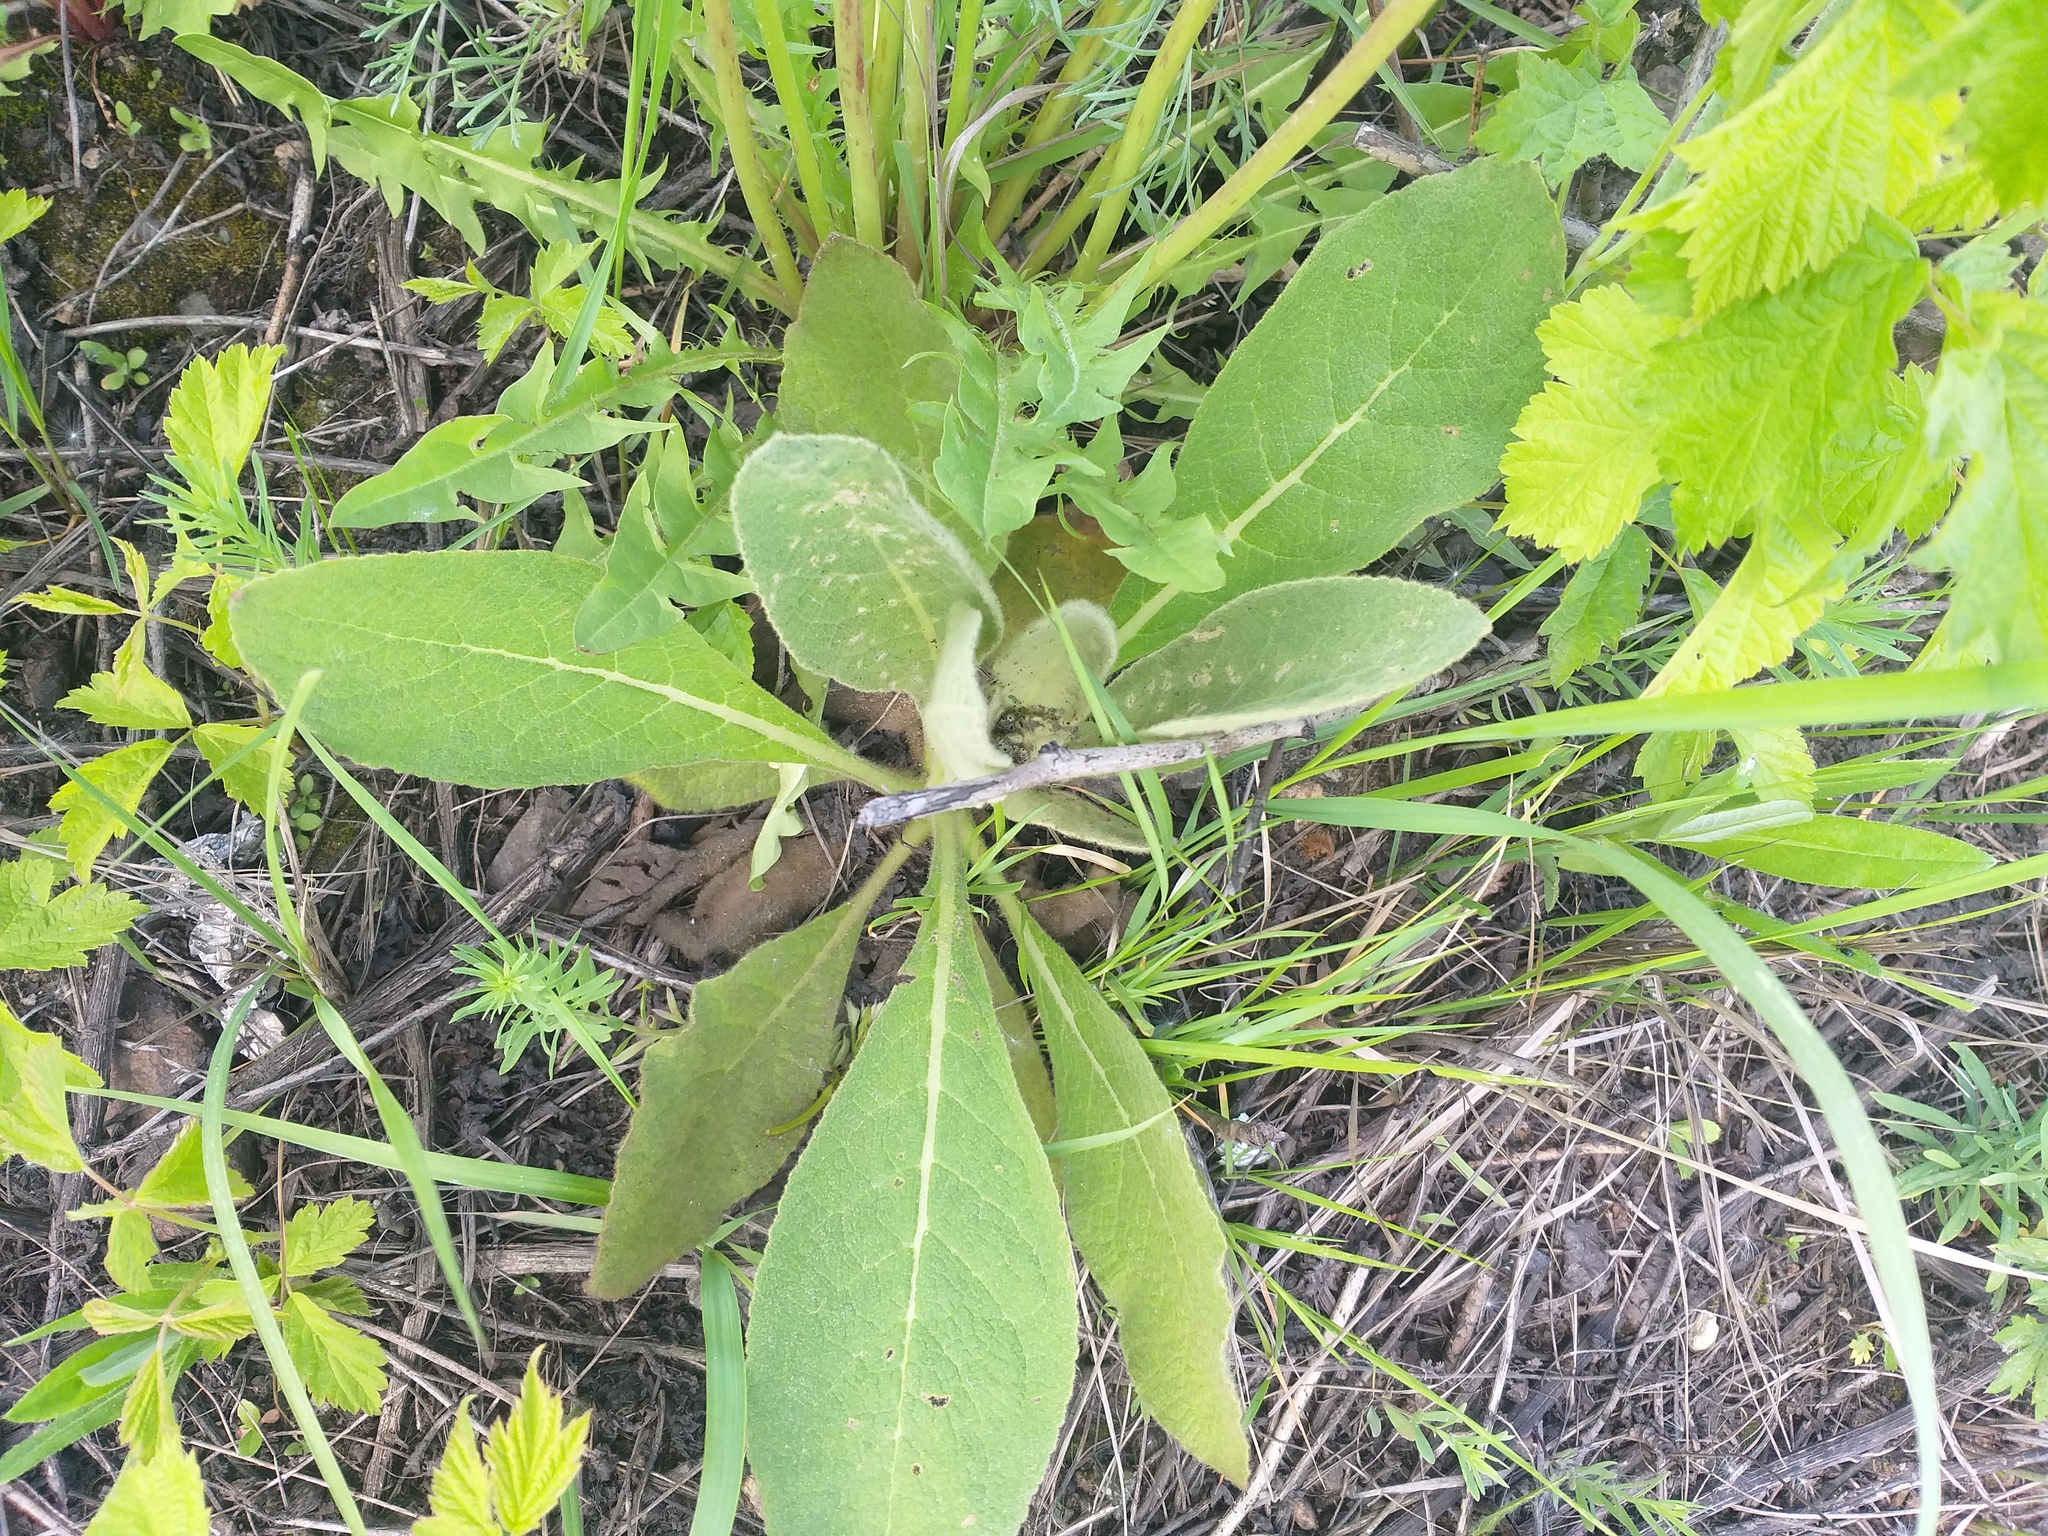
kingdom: Plantae
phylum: Tracheophyta
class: Magnoliopsida
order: Lamiales
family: Scrophulariaceae
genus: Verbascum
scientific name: Verbascum thapsus
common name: Common mullein
